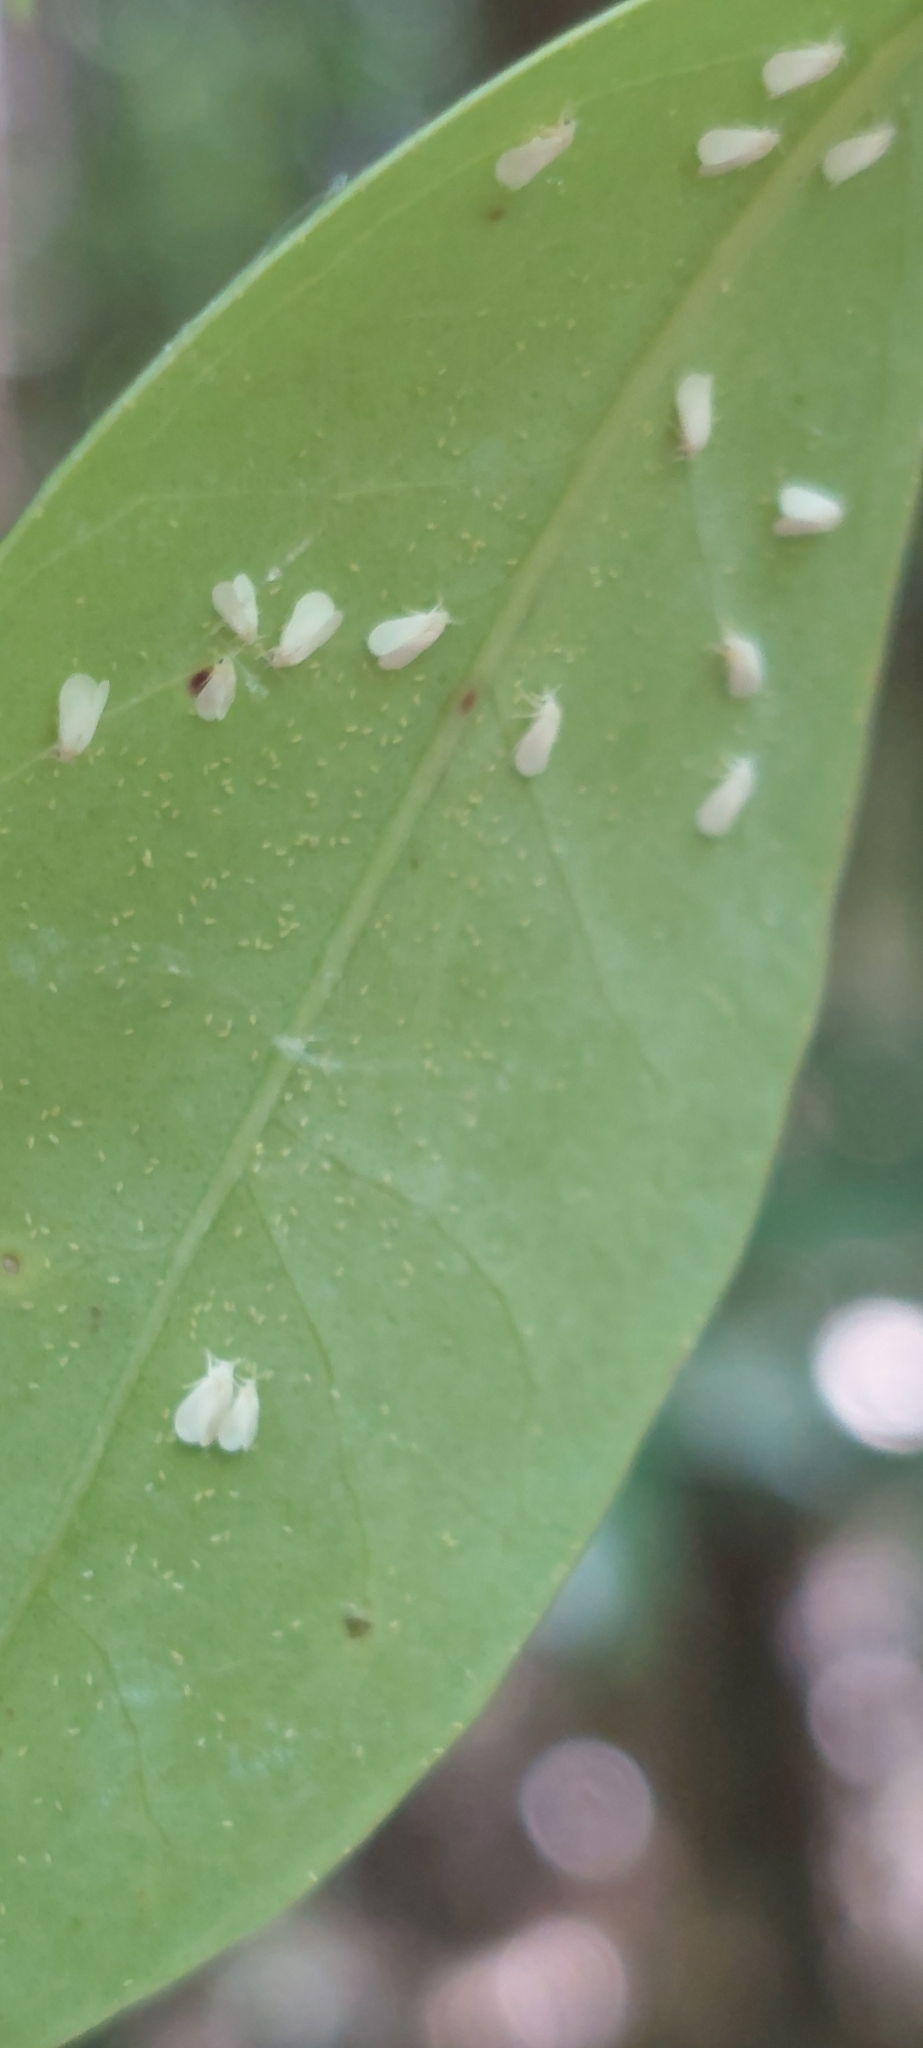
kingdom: Animalia
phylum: Arthropoda
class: Insecta
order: Hemiptera
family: Aleyrodidae
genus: Dialeurodes
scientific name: Dialeurodes citri
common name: Whitefly
